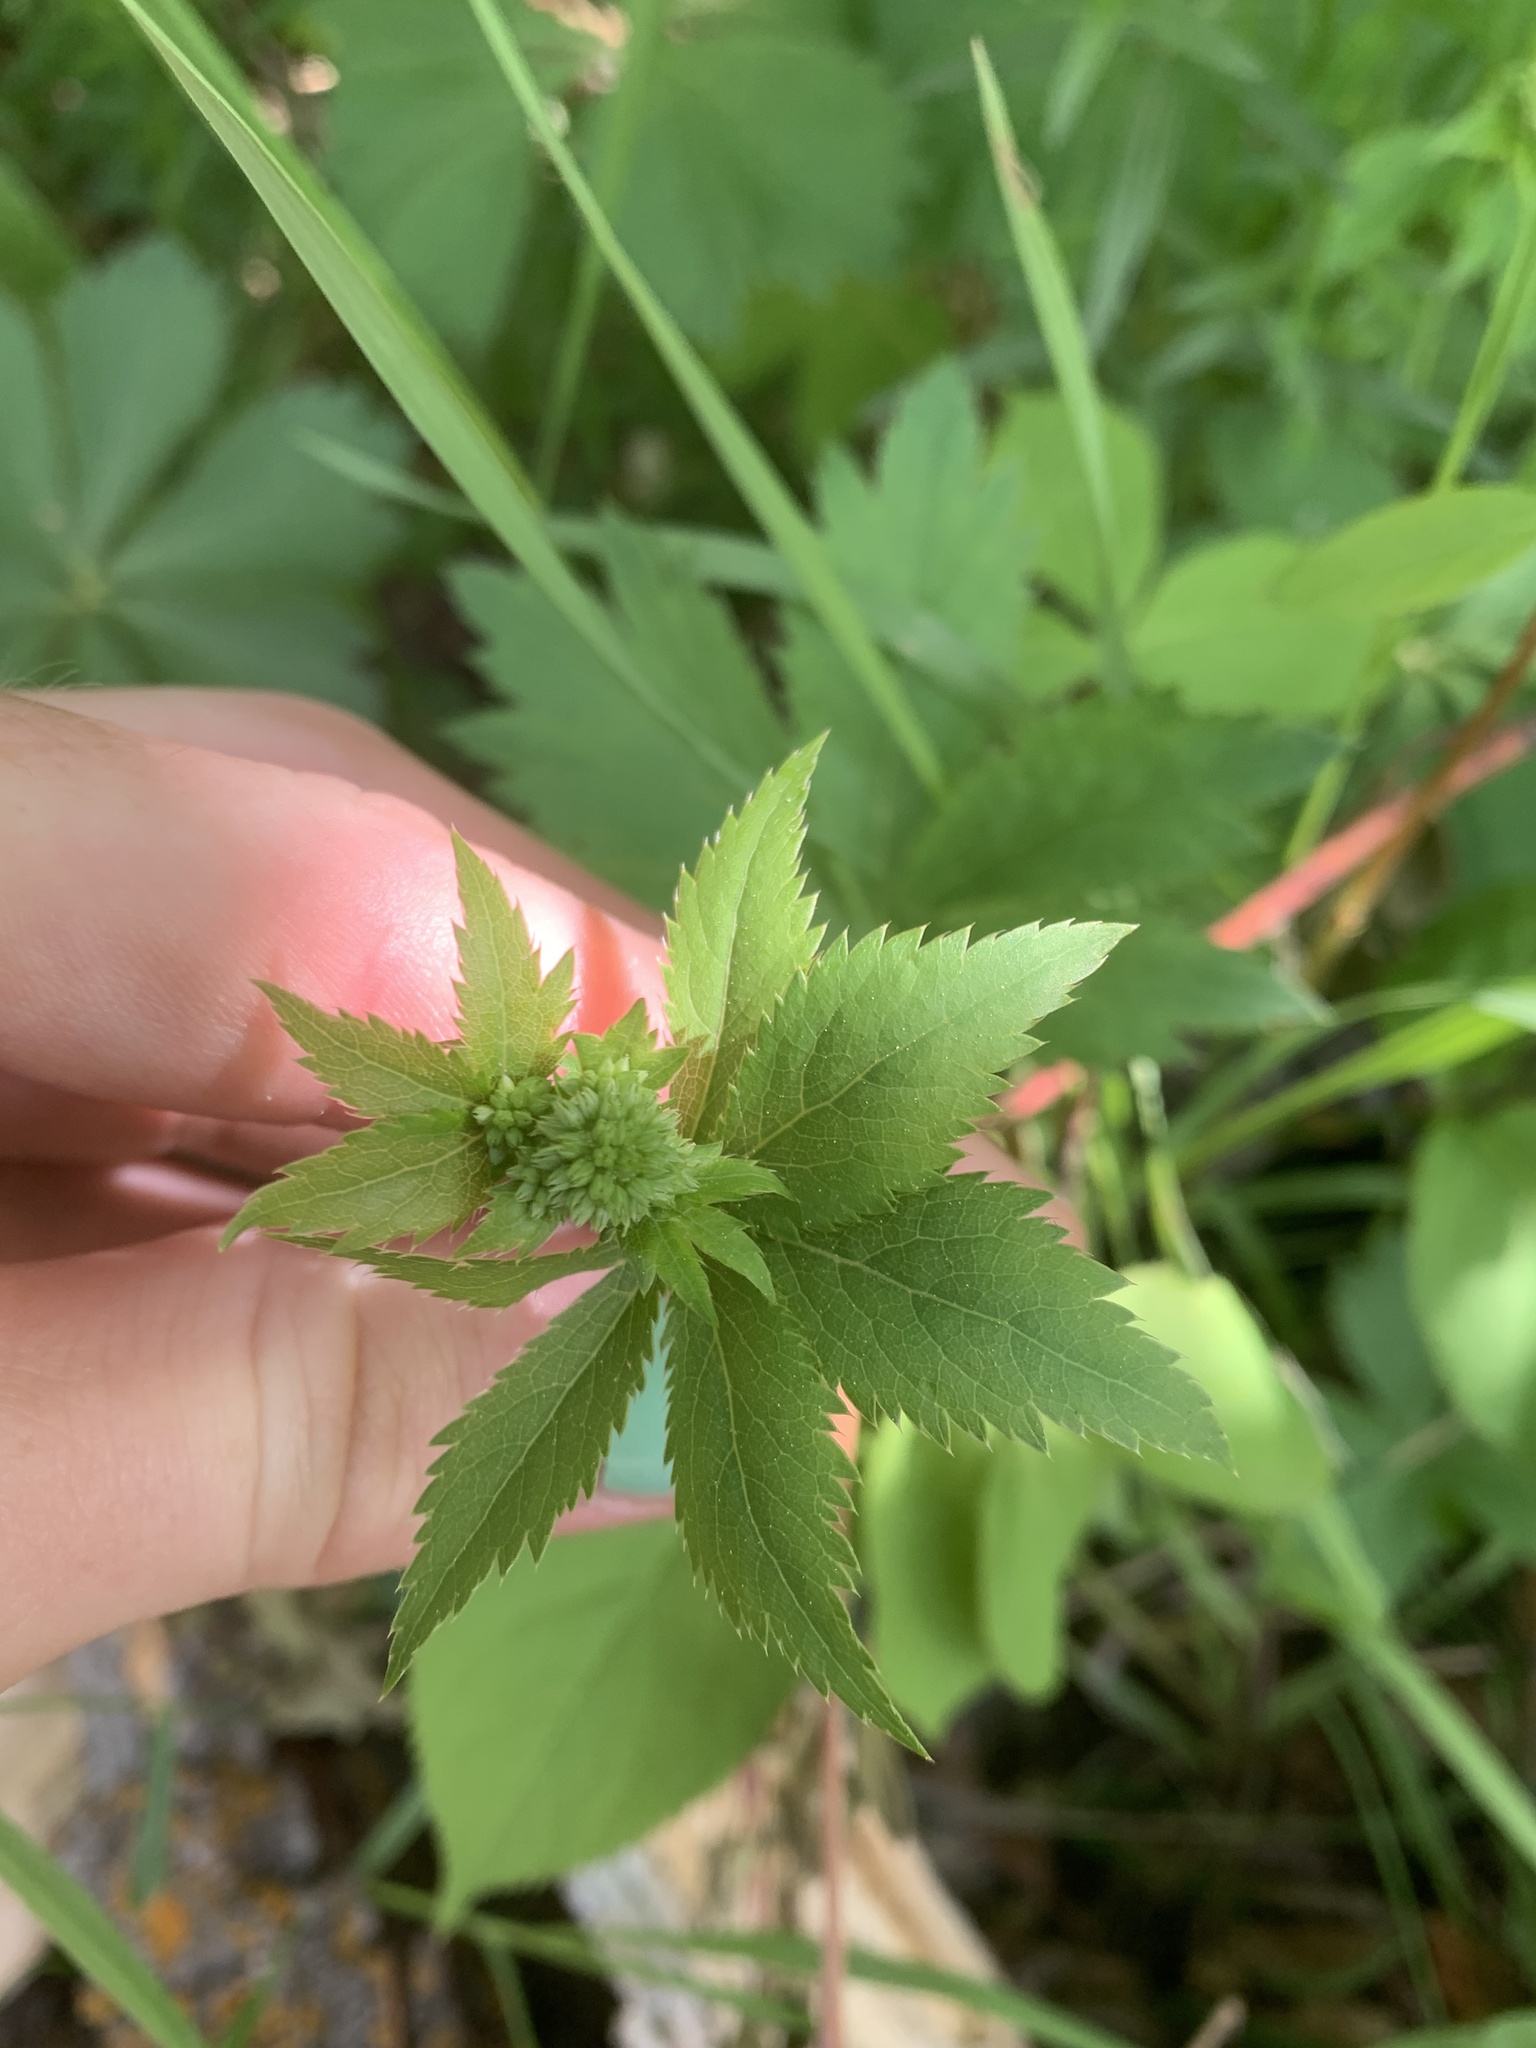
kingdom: Plantae
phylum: Tracheophyta
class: Magnoliopsida
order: Apiales
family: Apiaceae
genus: Sanicula
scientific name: Sanicula marilandica
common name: Black snakeroot
